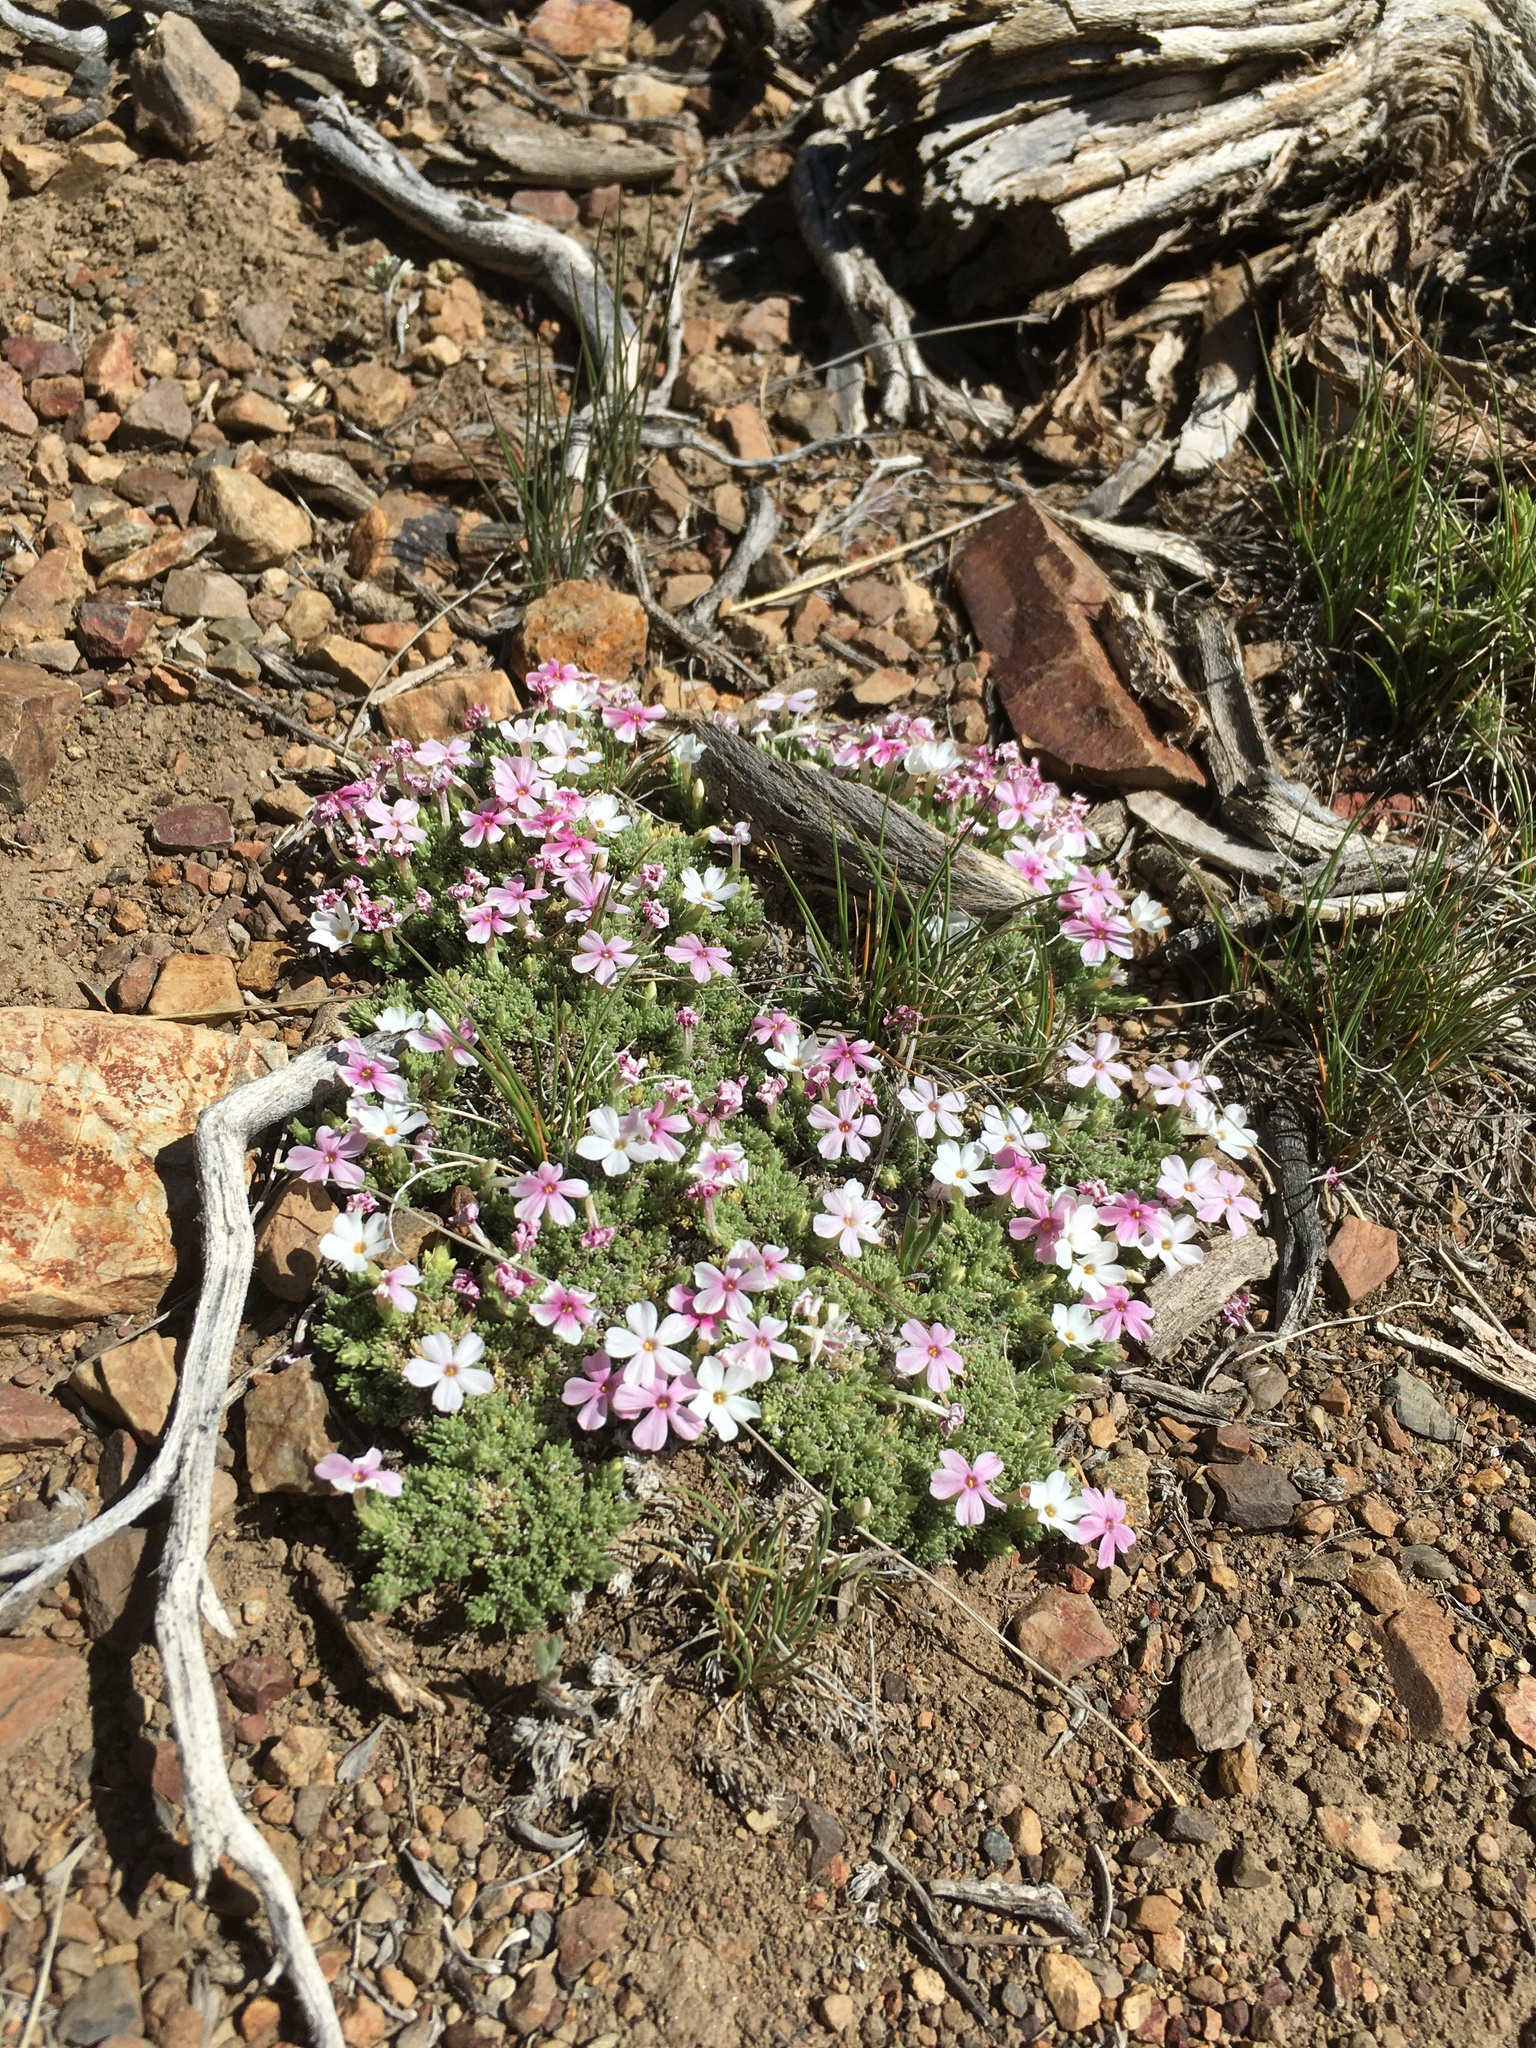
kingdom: Plantae
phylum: Tracheophyta
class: Magnoliopsida
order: Ericales
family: Polemoniaceae
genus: Phlox
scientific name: Phlox condensata
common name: Compact phlox
